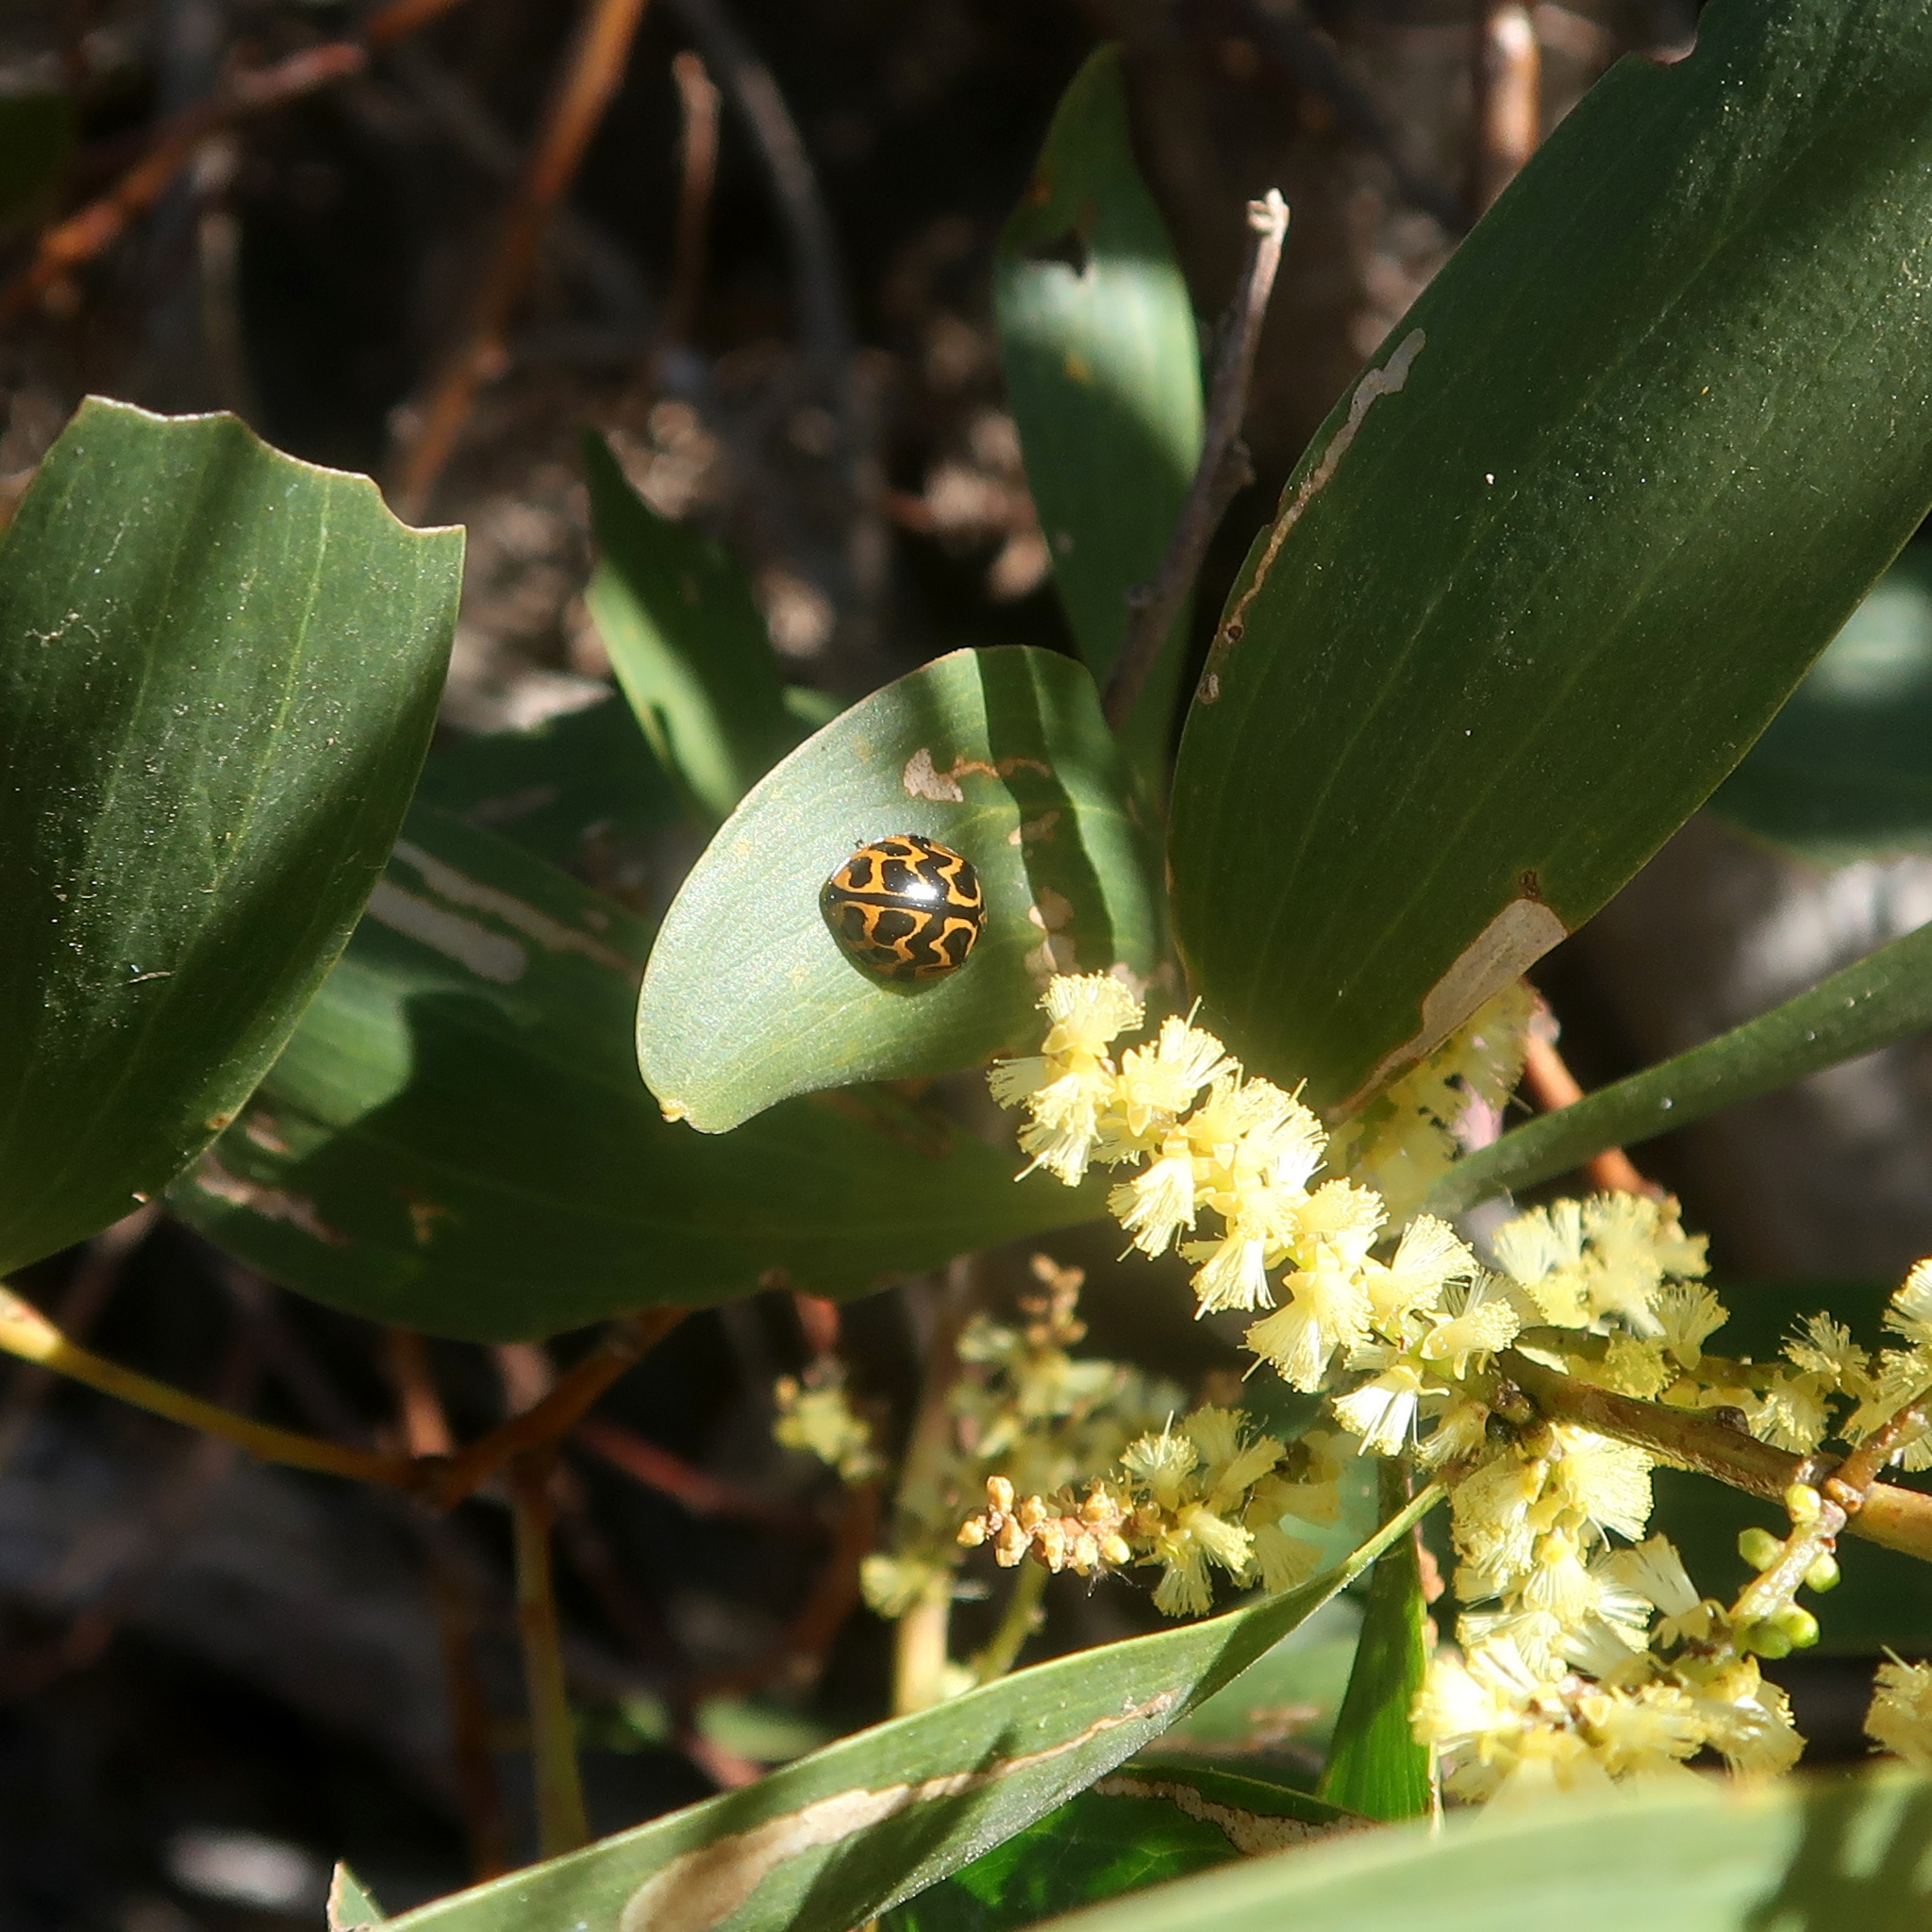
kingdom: Animalia
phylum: Arthropoda
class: Insecta
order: Coleoptera
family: Coccinellidae
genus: Cleobora
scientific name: Cleobora
